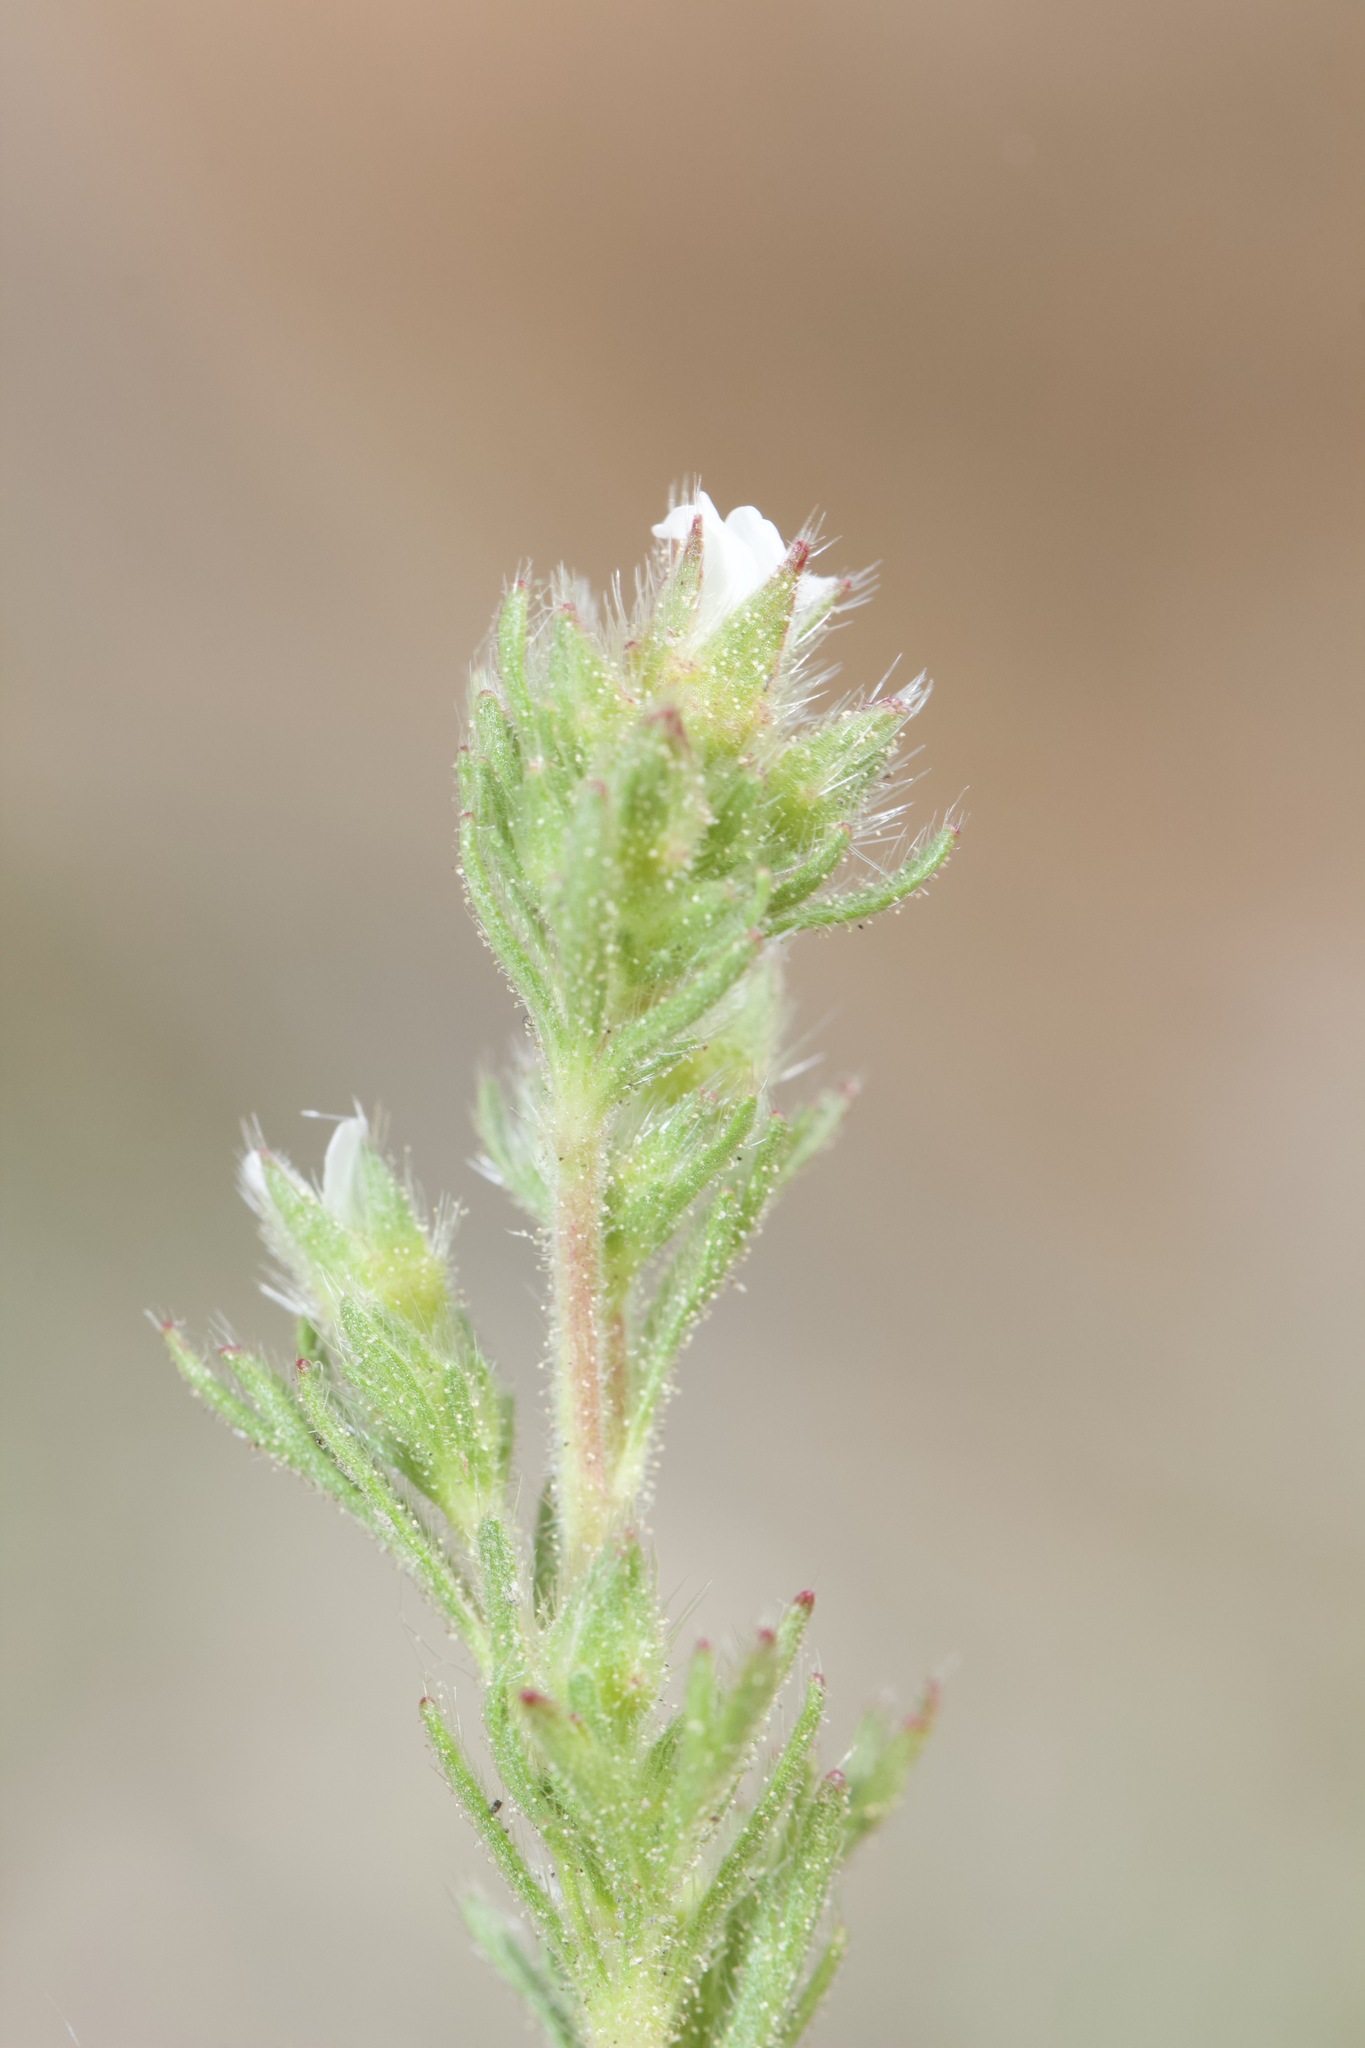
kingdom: Plantae
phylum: Tracheophyta
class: Magnoliopsida
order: Rosales
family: Rosaceae
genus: Chamaerhodos
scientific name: Chamaerhodos erecta
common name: American chamaerhodos
